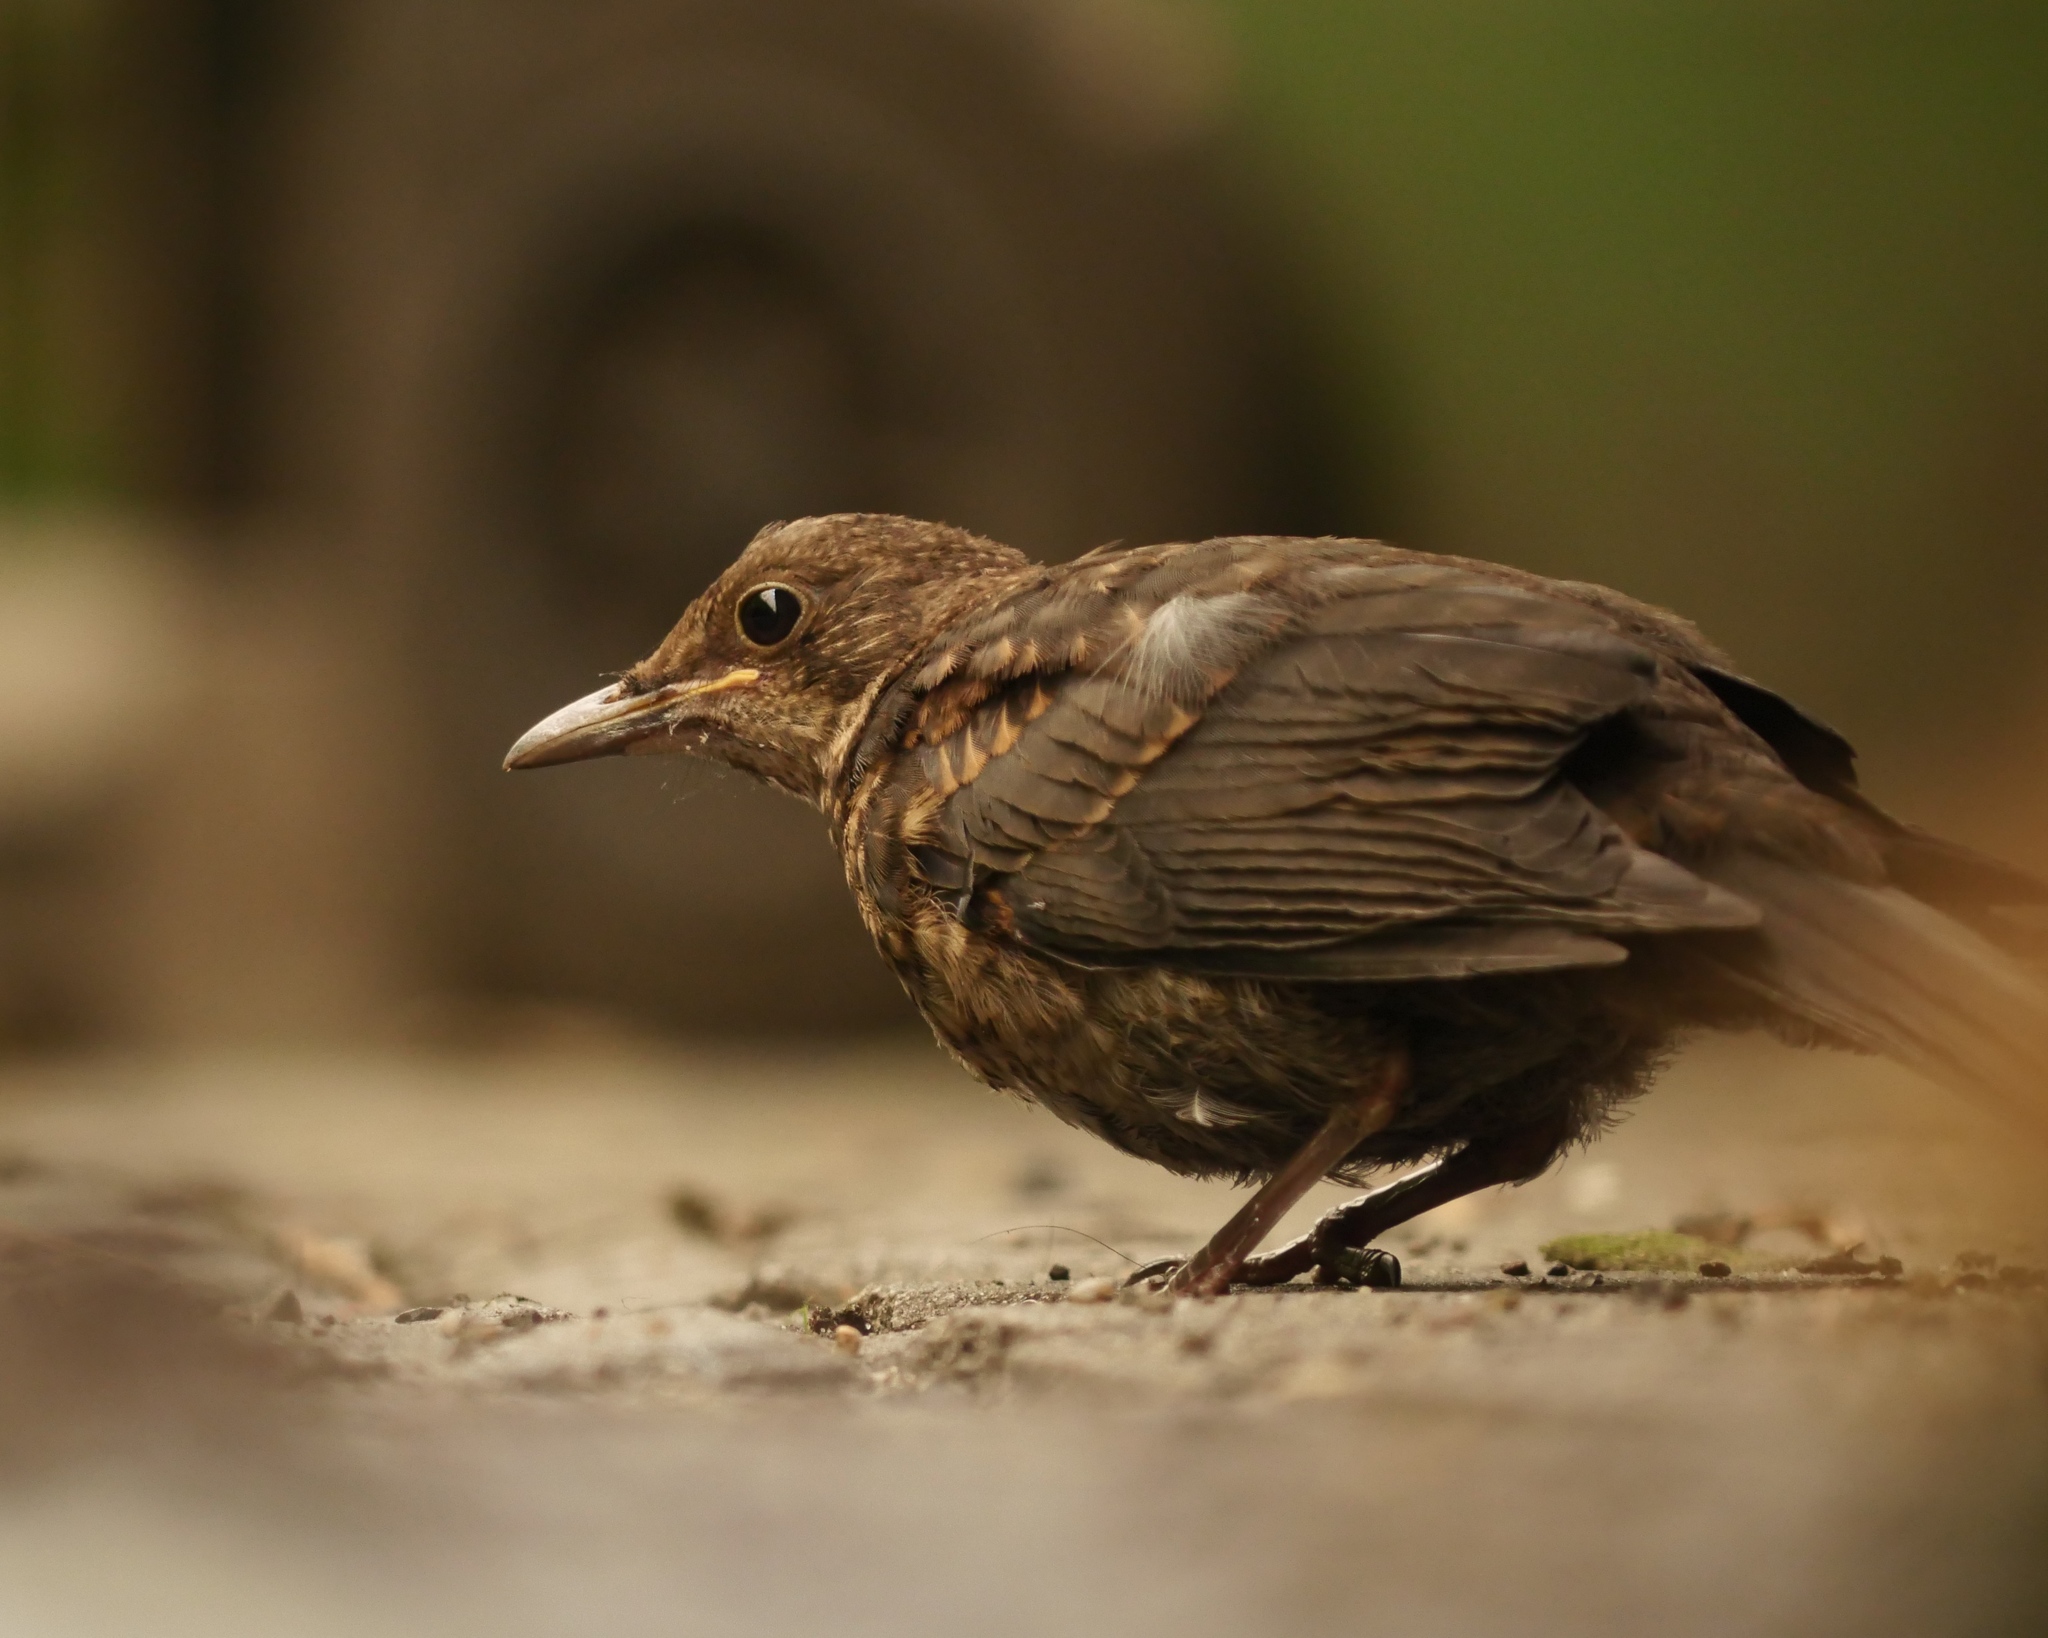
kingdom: Animalia
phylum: Chordata
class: Aves
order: Passeriformes
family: Turdidae
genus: Turdus
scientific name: Turdus merula
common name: Common blackbird
